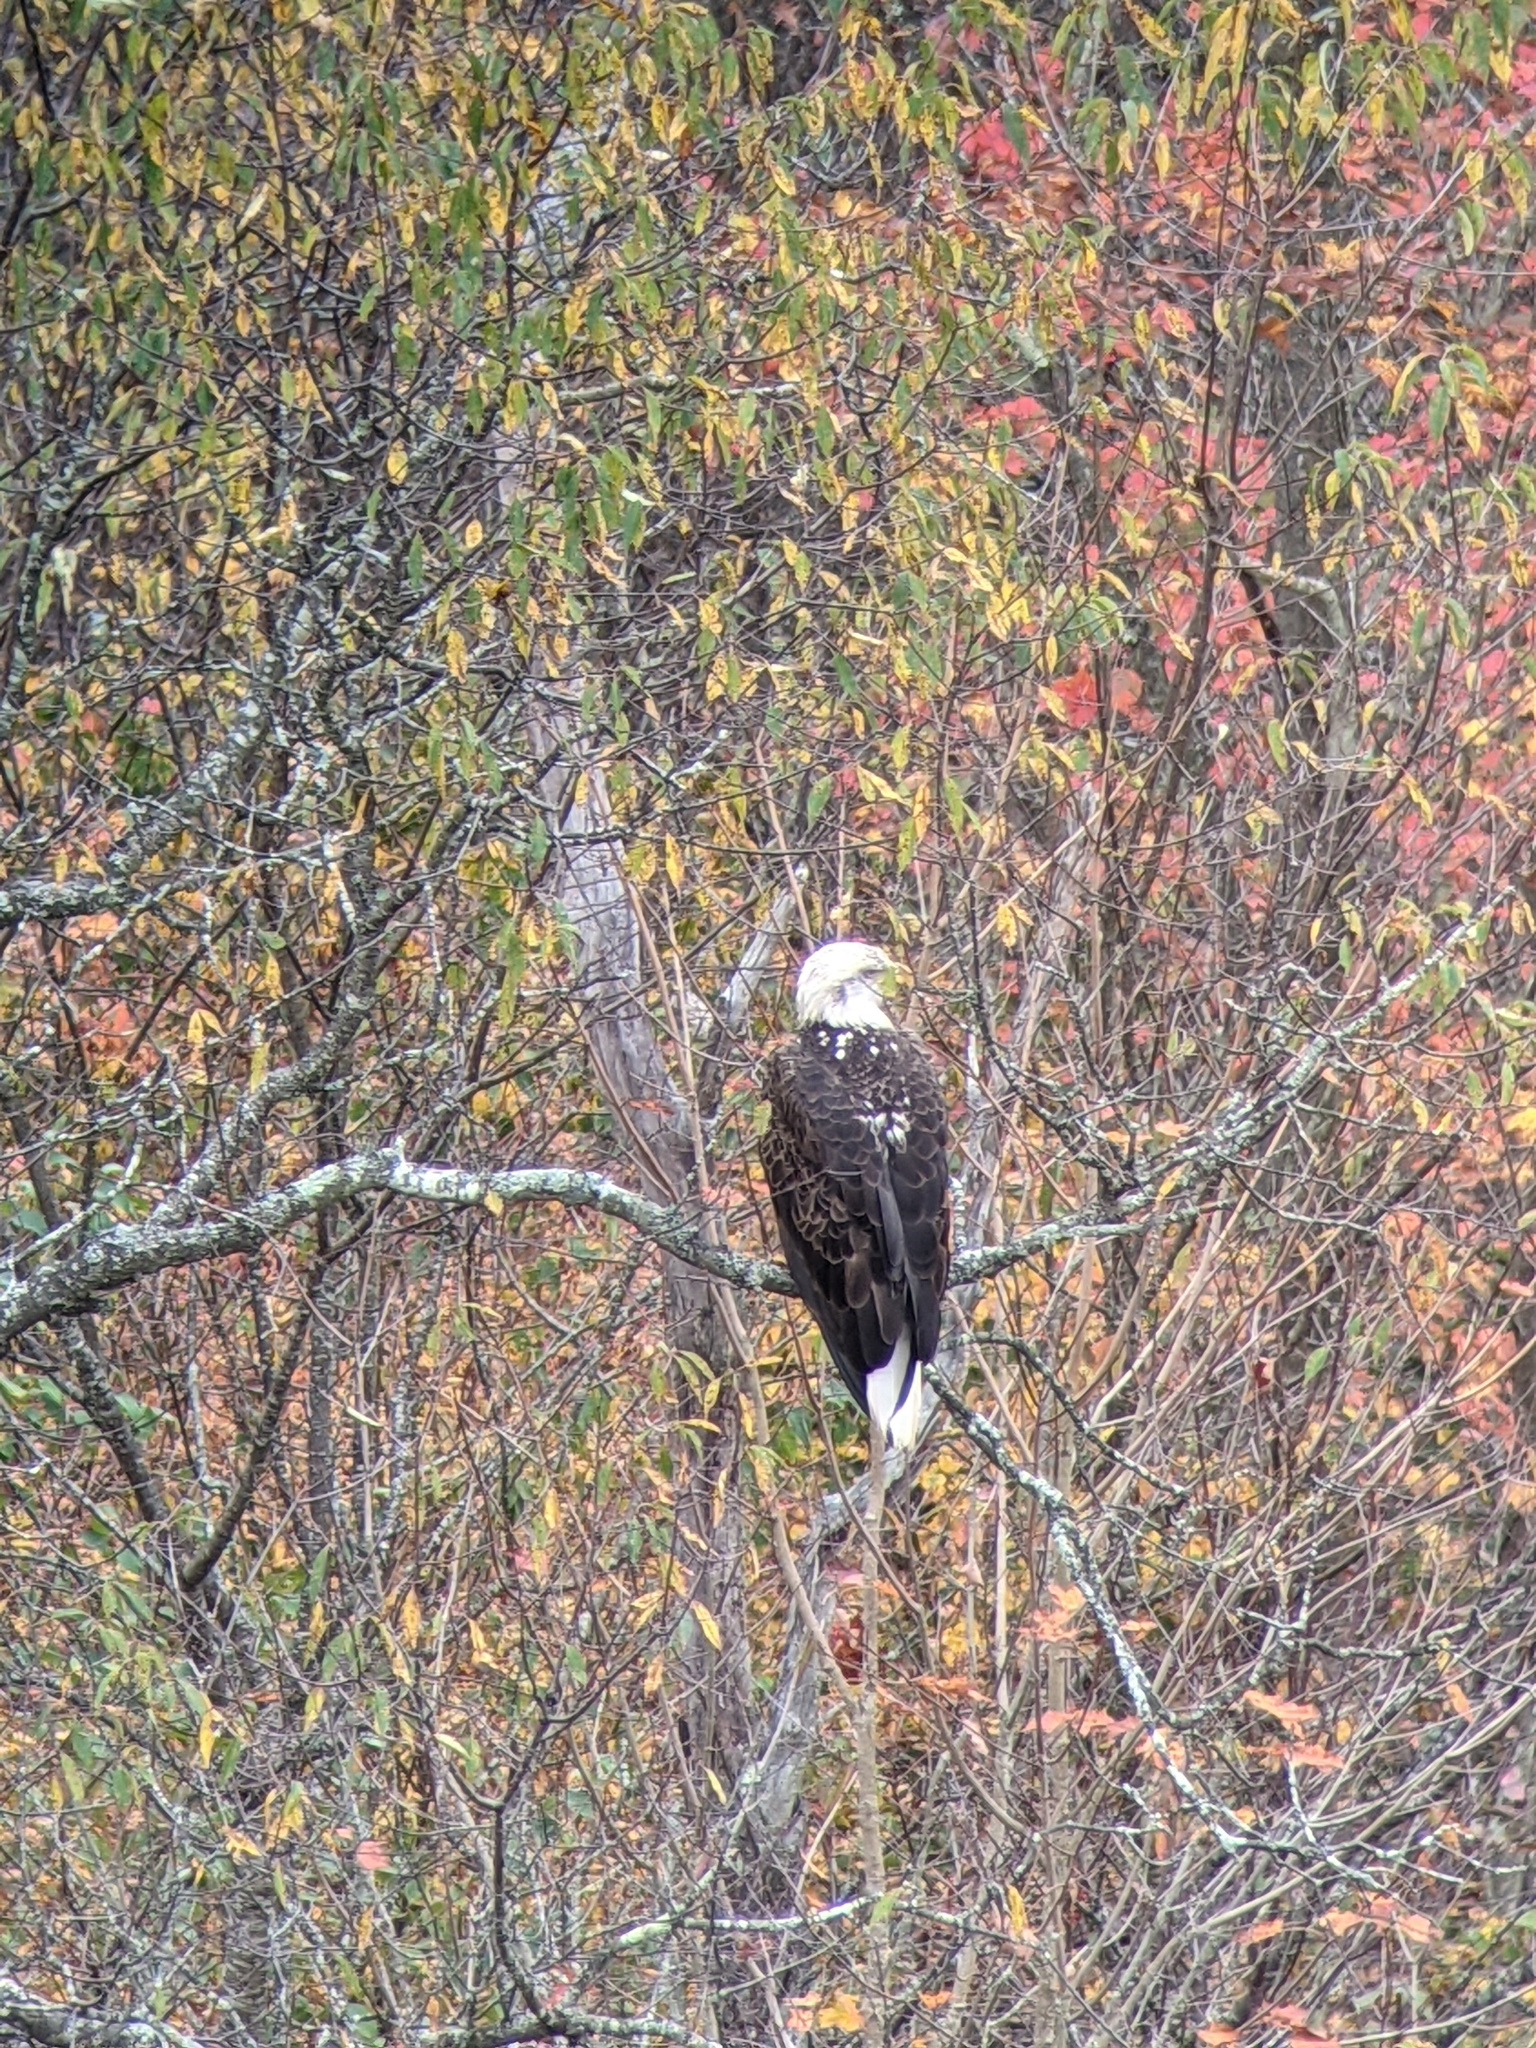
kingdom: Animalia
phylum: Chordata
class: Aves
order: Accipitriformes
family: Accipitridae
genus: Haliaeetus
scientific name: Haliaeetus leucocephalus
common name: Bald eagle
